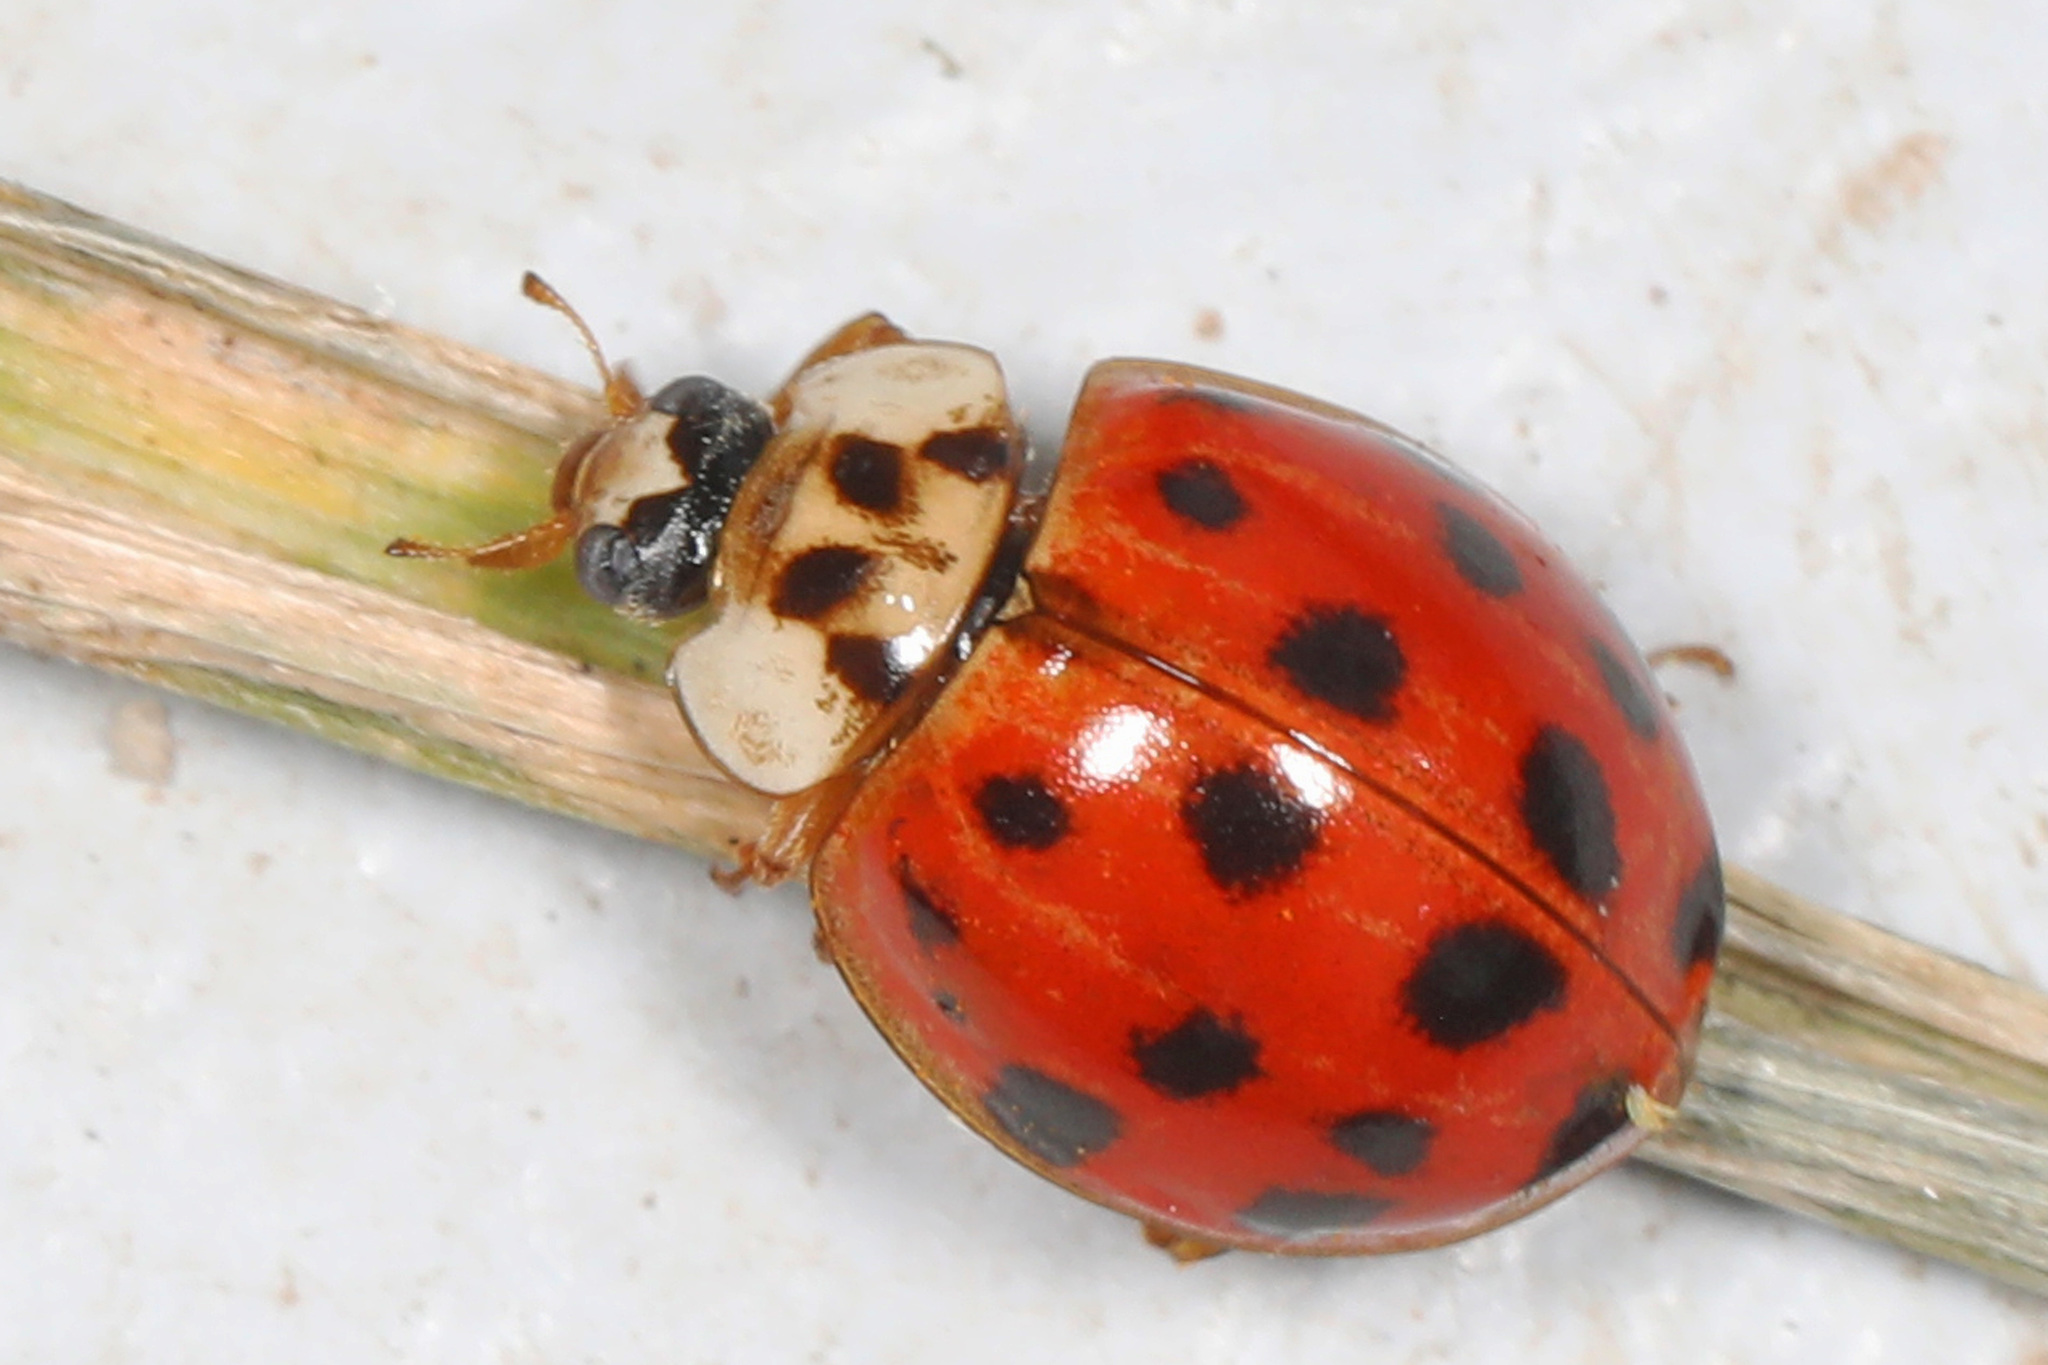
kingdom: Animalia
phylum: Arthropoda
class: Insecta
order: Coleoptera
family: Coccinellidae
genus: Harmonia
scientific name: Harmonia axyridis
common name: Harlequin ladybird
